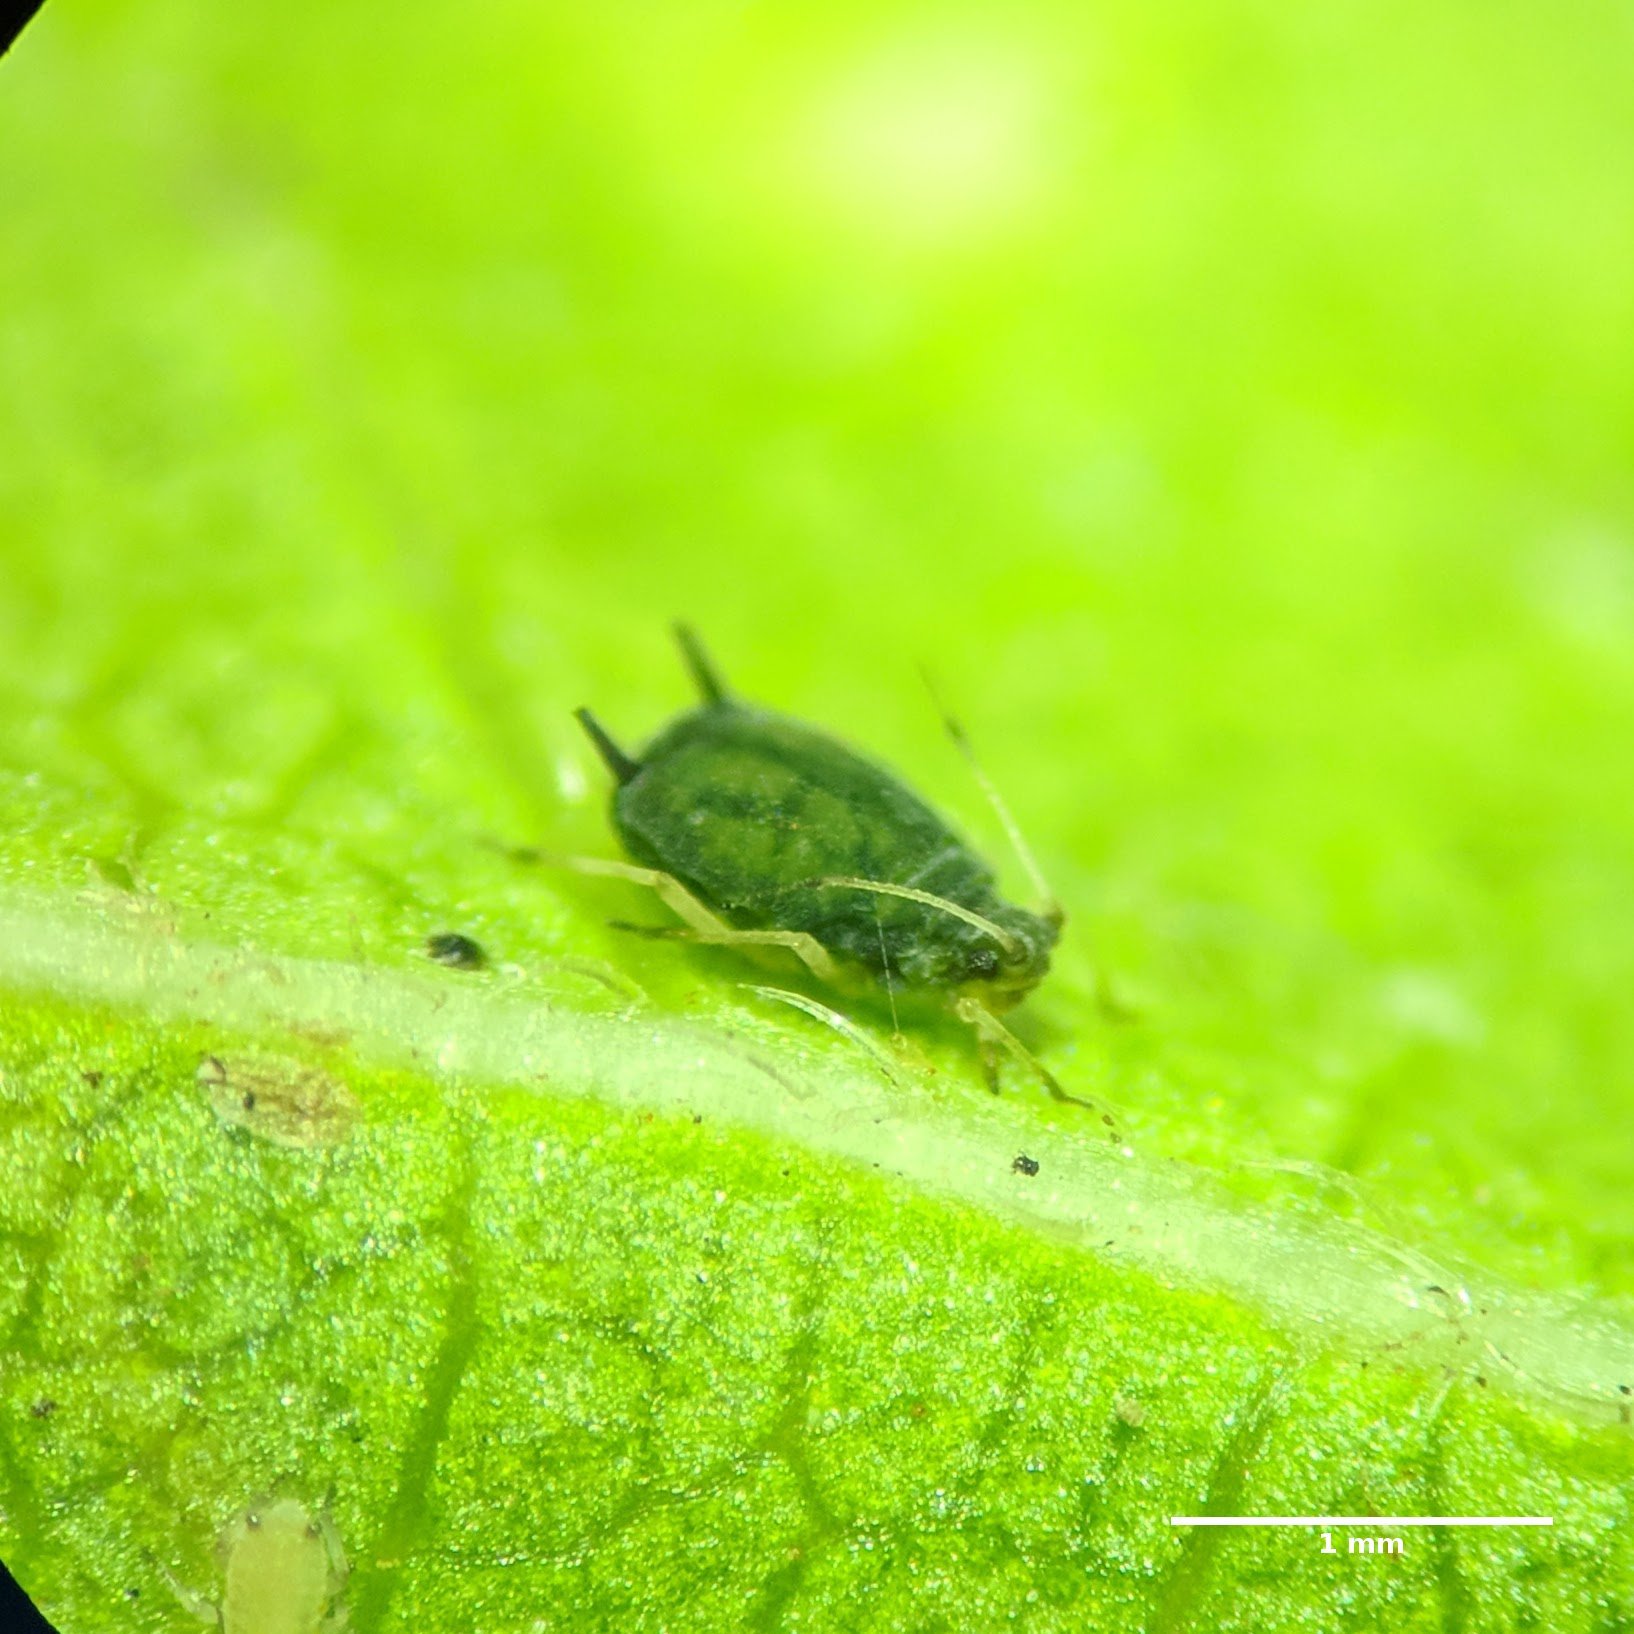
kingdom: Animalia
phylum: Arthropoda
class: Insecta
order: Hemiptera
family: Aphididae
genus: Aphis
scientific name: Aphis gossypii
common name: Melon aphid
